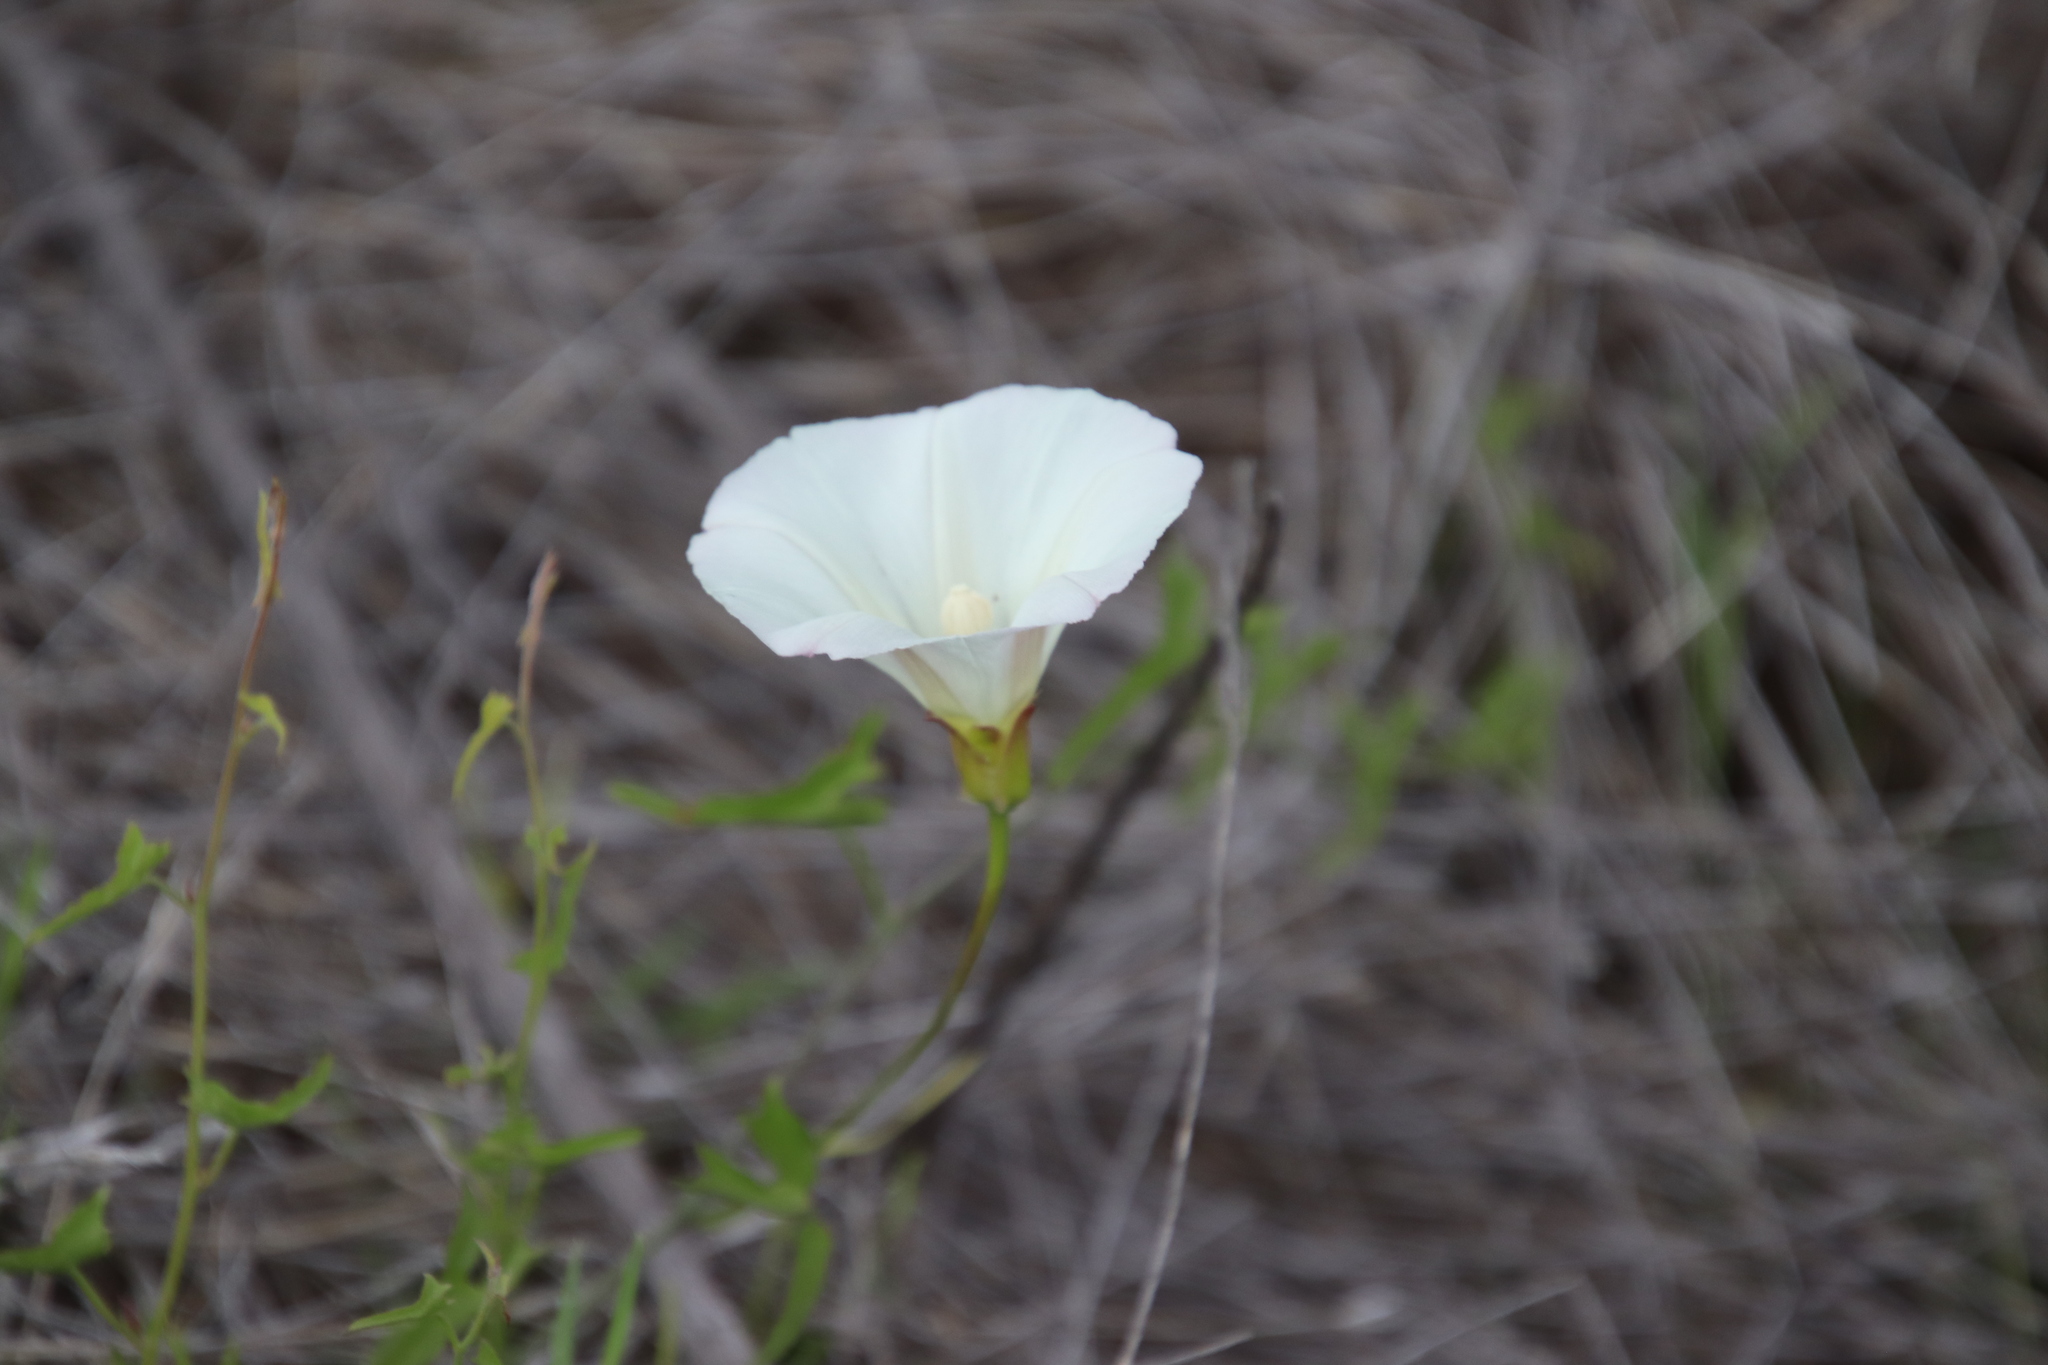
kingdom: Plantae
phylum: Tracheophyta
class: Magnoliopsida
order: Solanales
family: Convolvulaceae
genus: Calystegia
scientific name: Calystegia macrostegia
